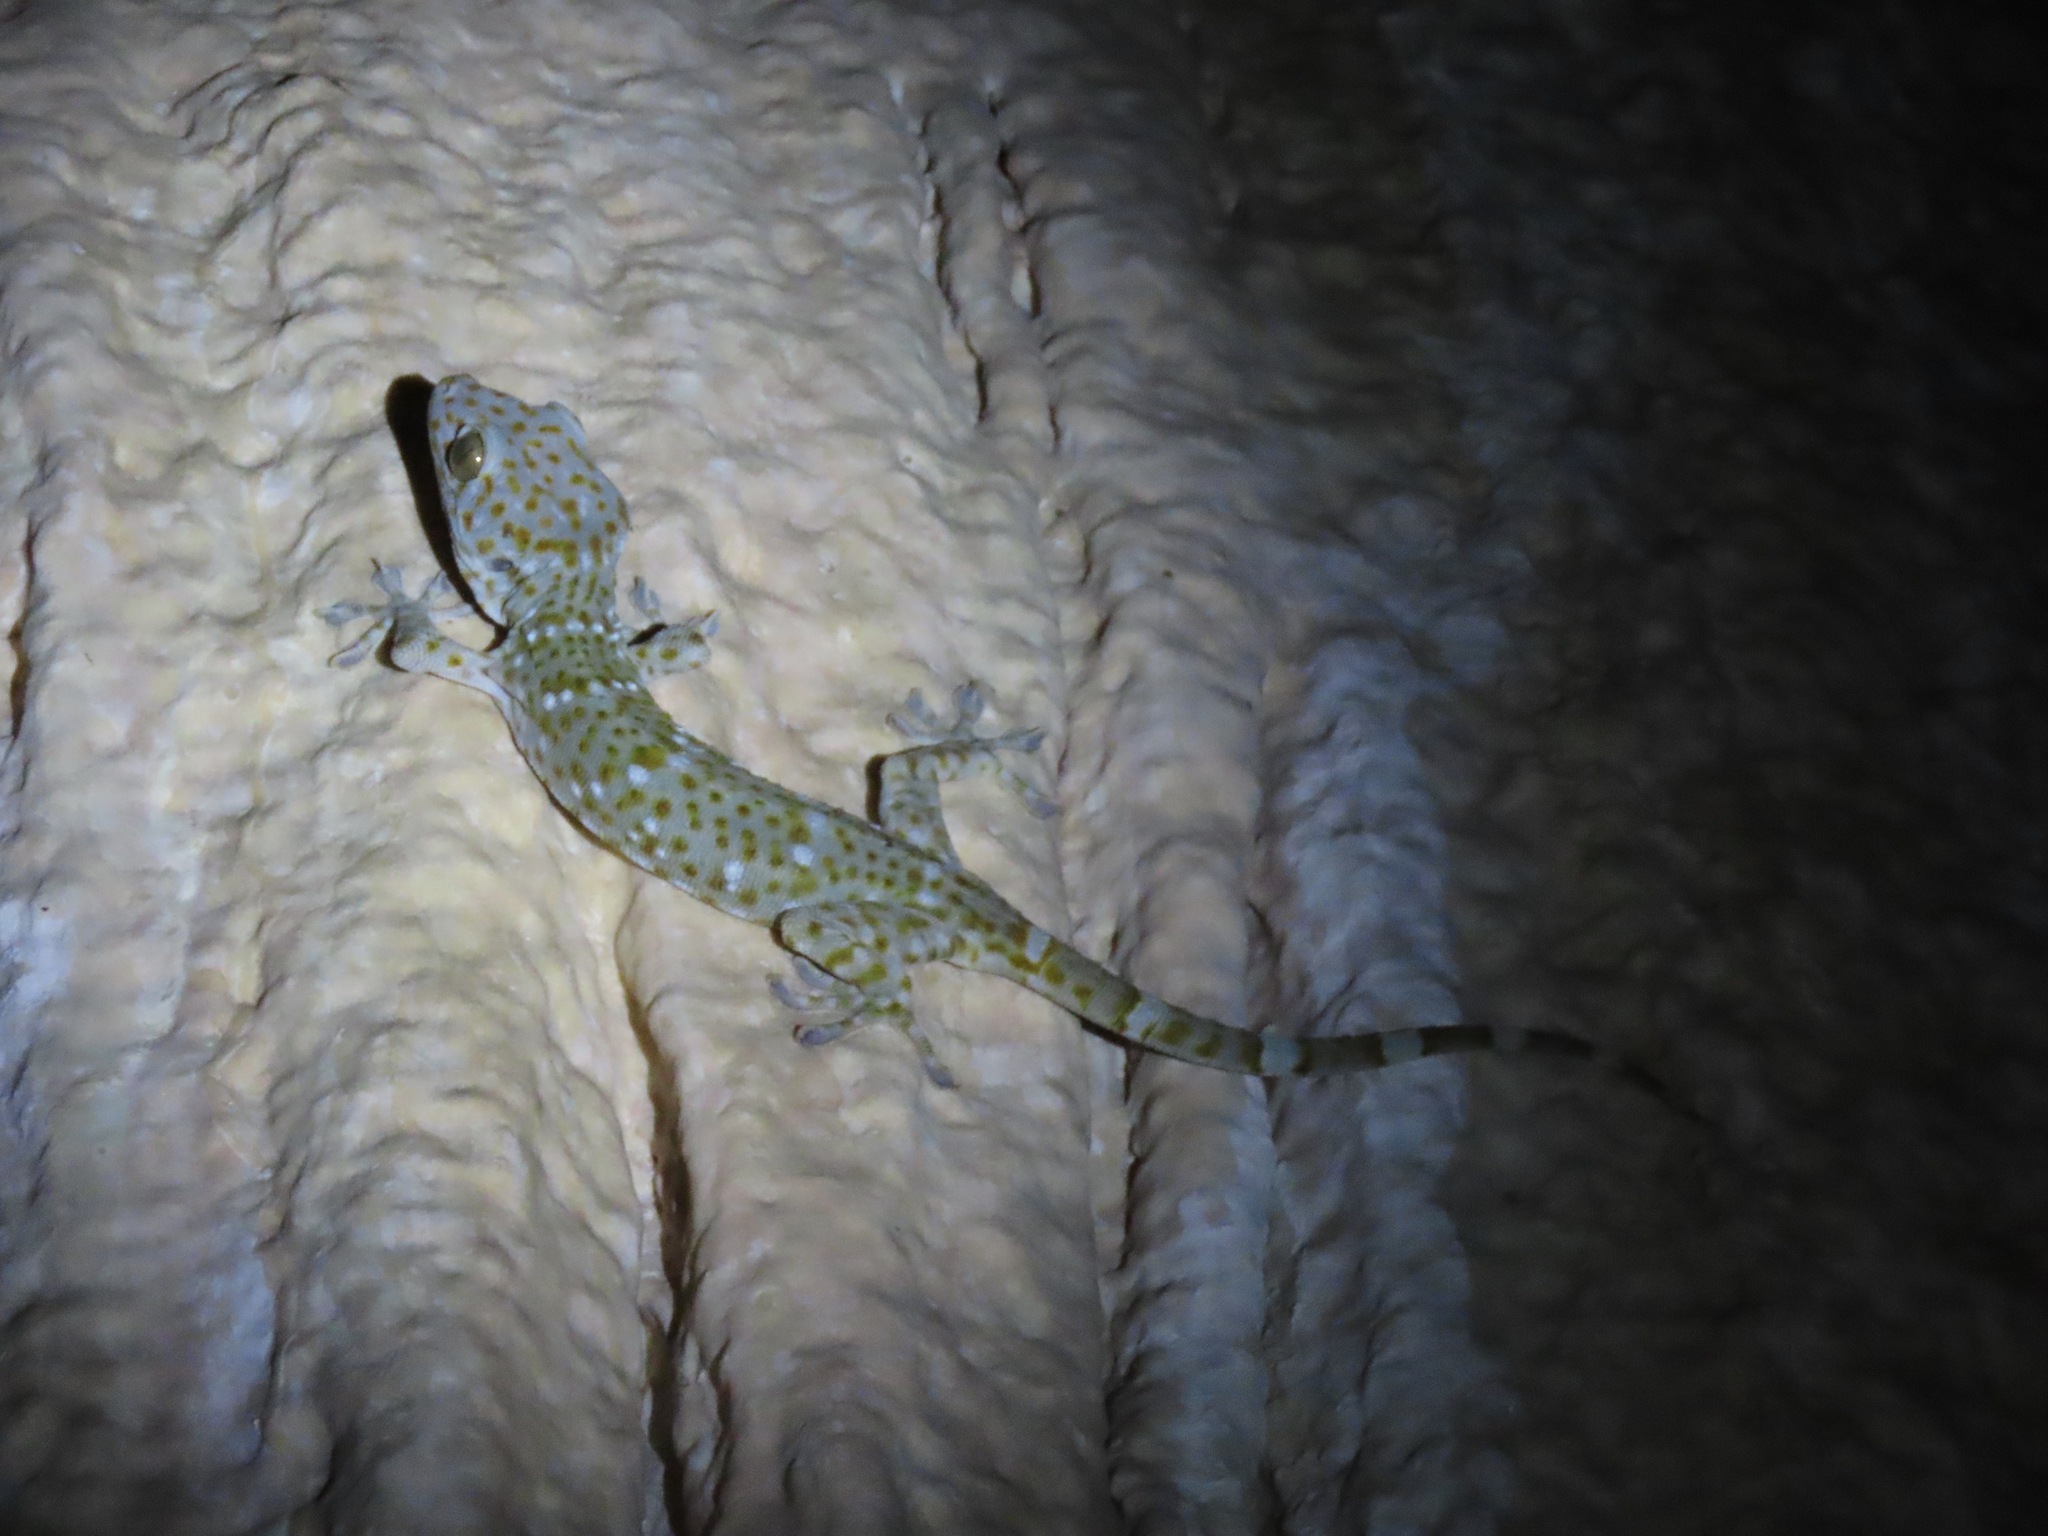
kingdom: Animalia
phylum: Chordata
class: Squamata
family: Gekkonidae
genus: Gekko
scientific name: Gekko gecko
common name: Tokay gecko
